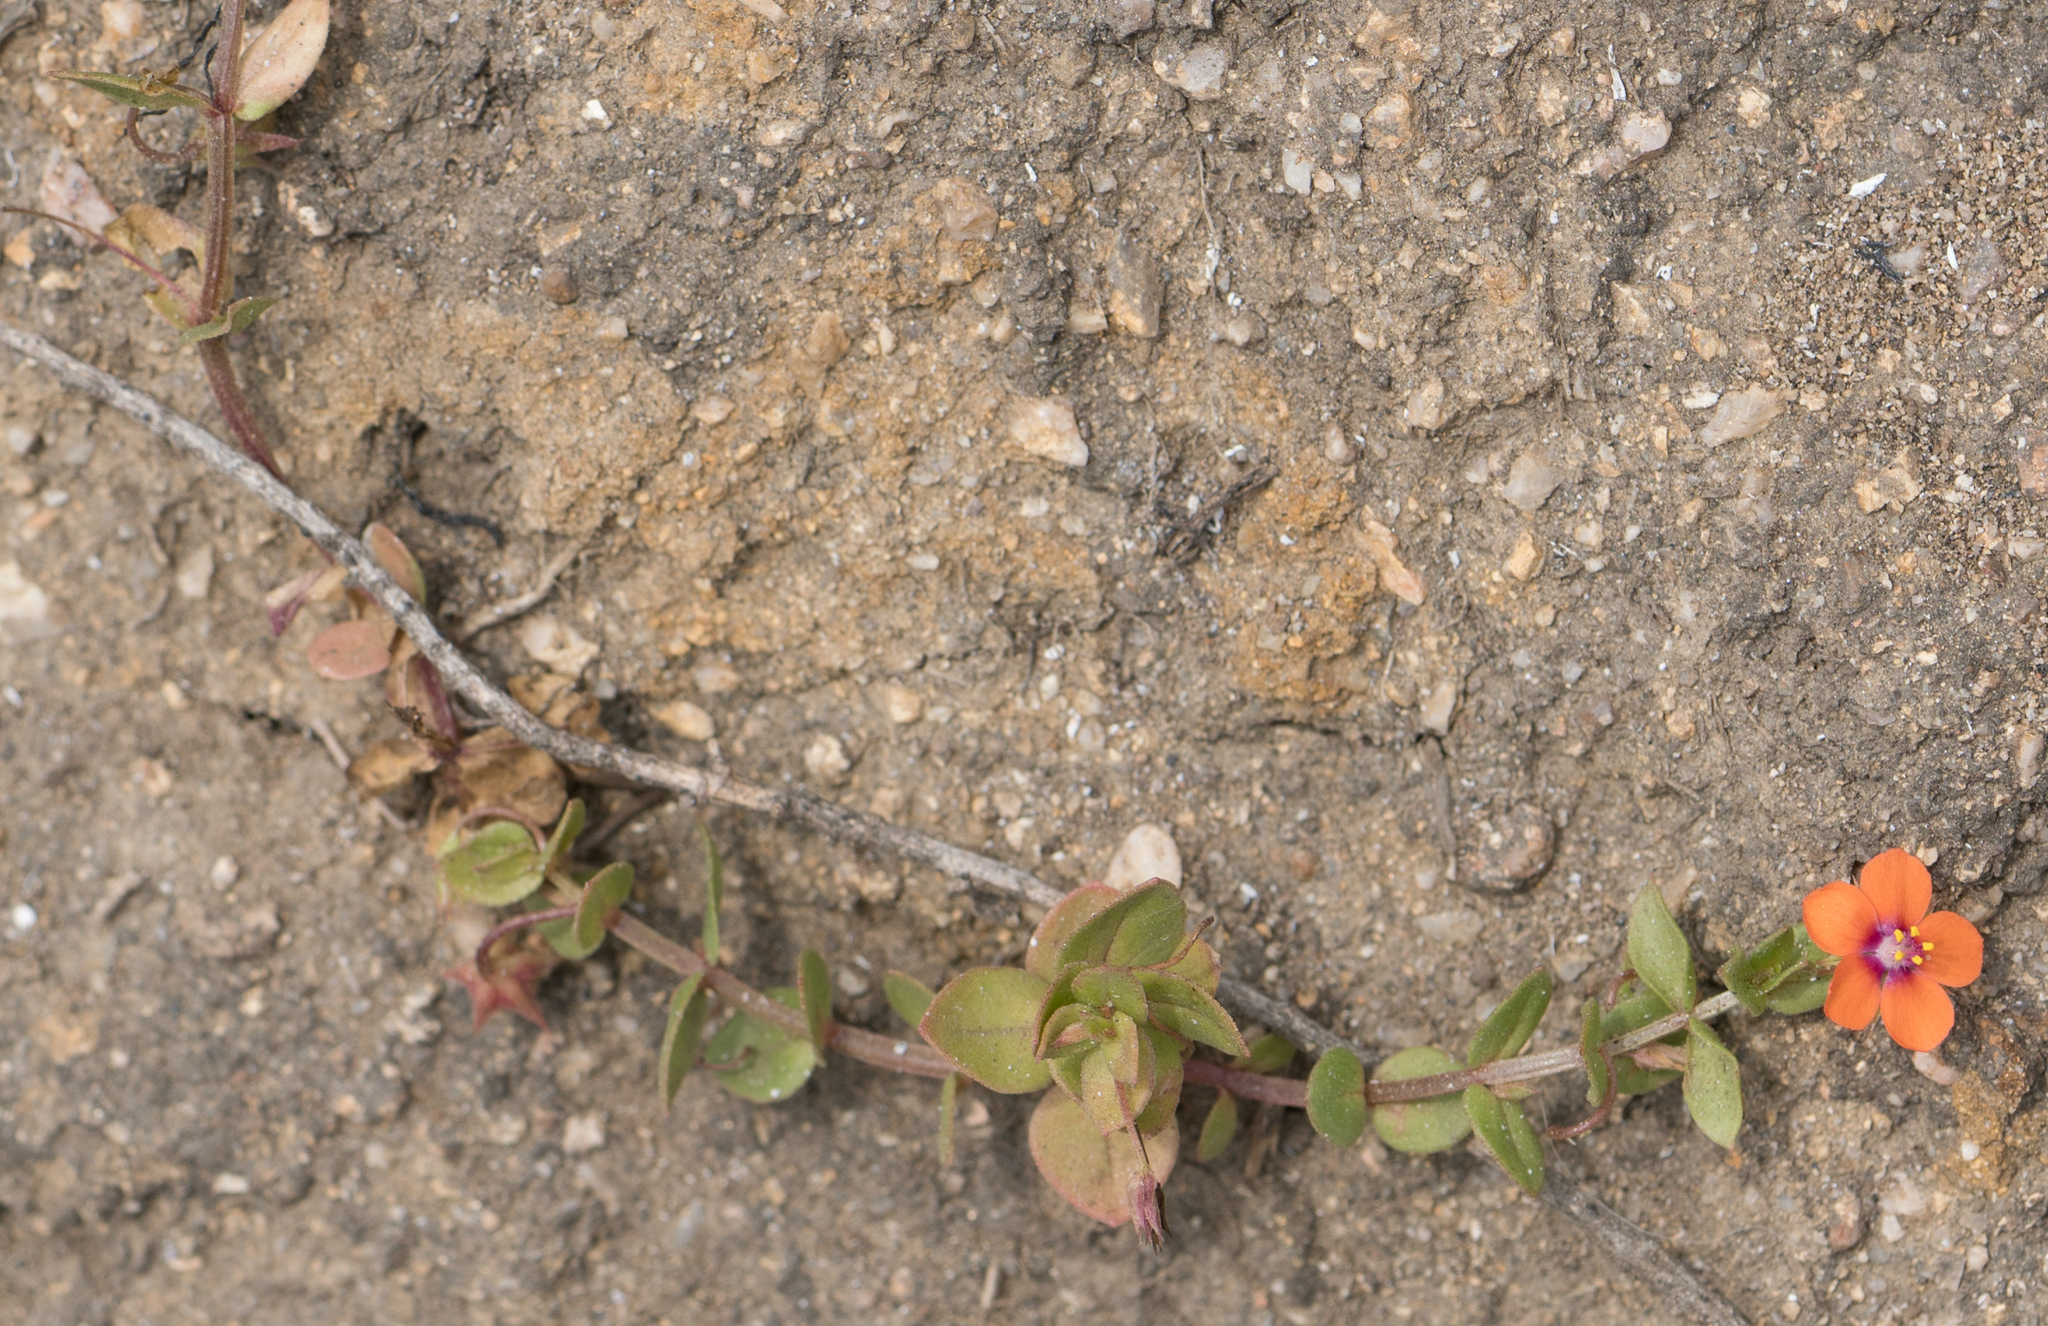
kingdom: Plantae
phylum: Tracheophyta
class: Magnoliopsida
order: Ericales
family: Primulaceae
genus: Lysimachia
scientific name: Lysimachia arvensis
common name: Scarlet pimpernel
